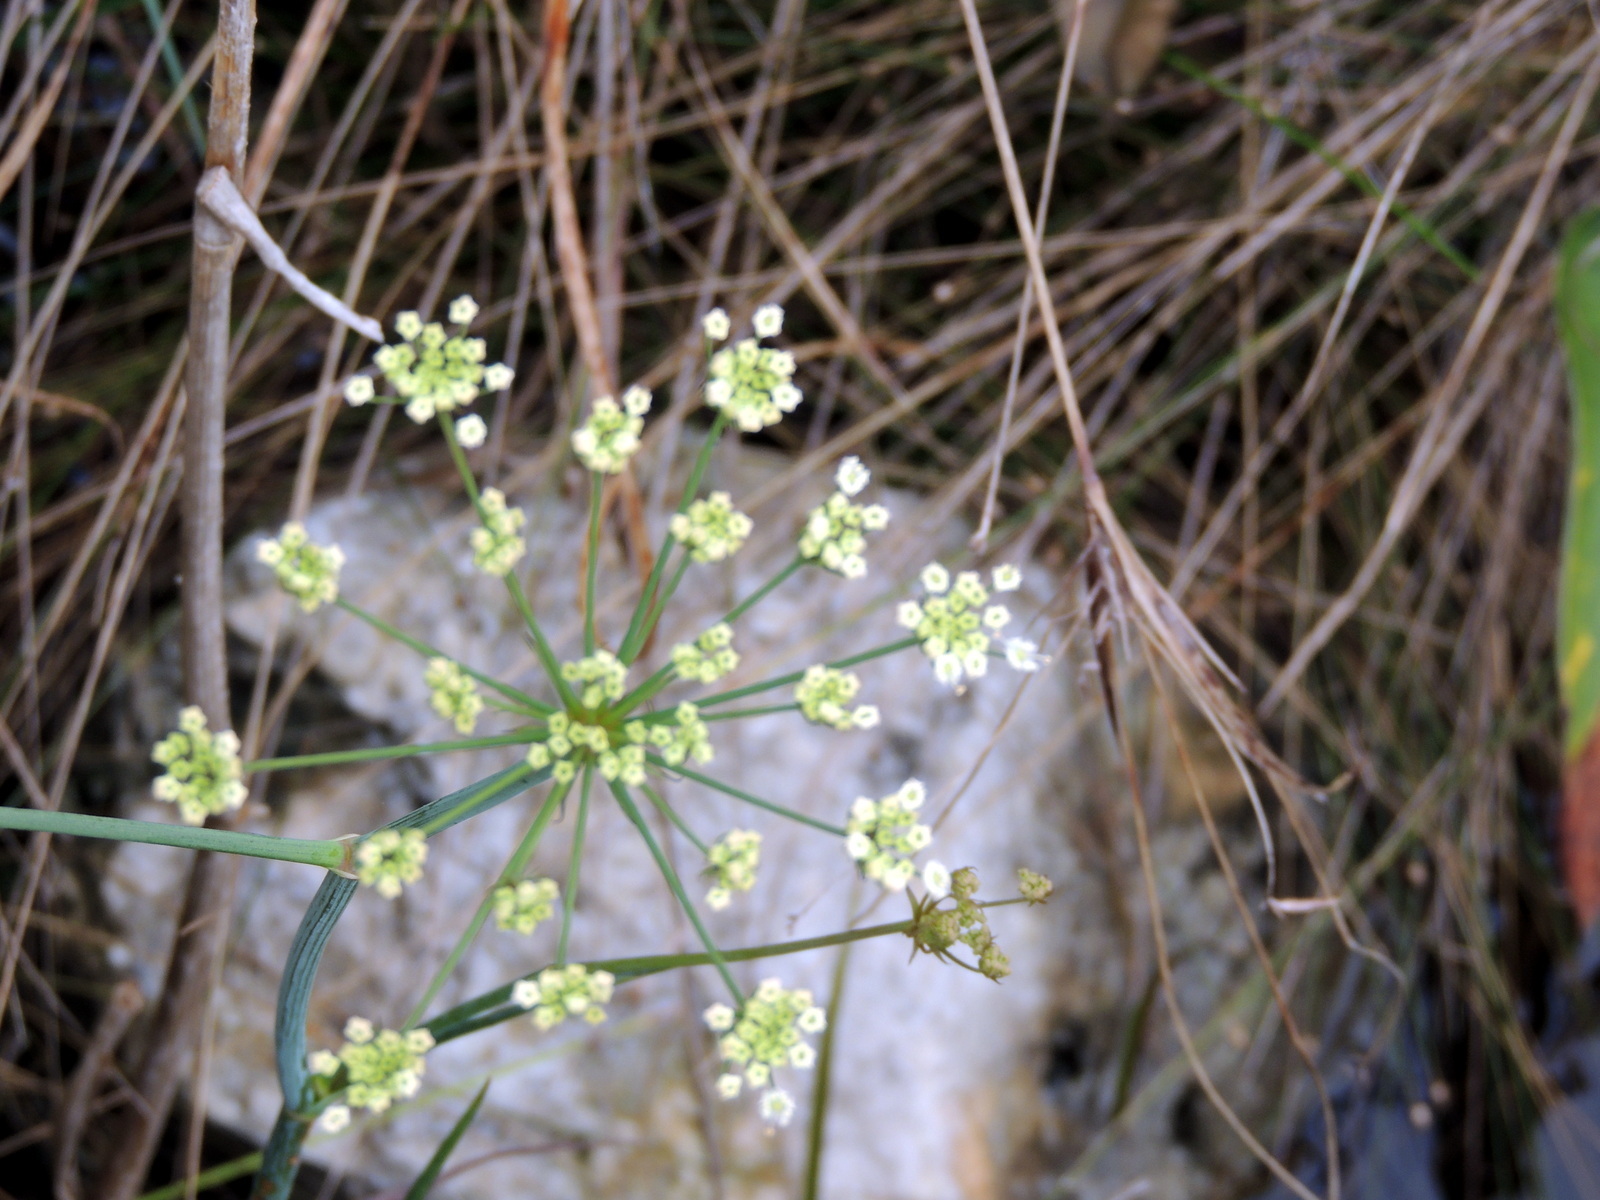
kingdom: Plantae
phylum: Tracheophyta
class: Magnoliopsida
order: Apiales
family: Apiaceae
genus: Tiedemannia
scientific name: Tiedemannia filiformis
